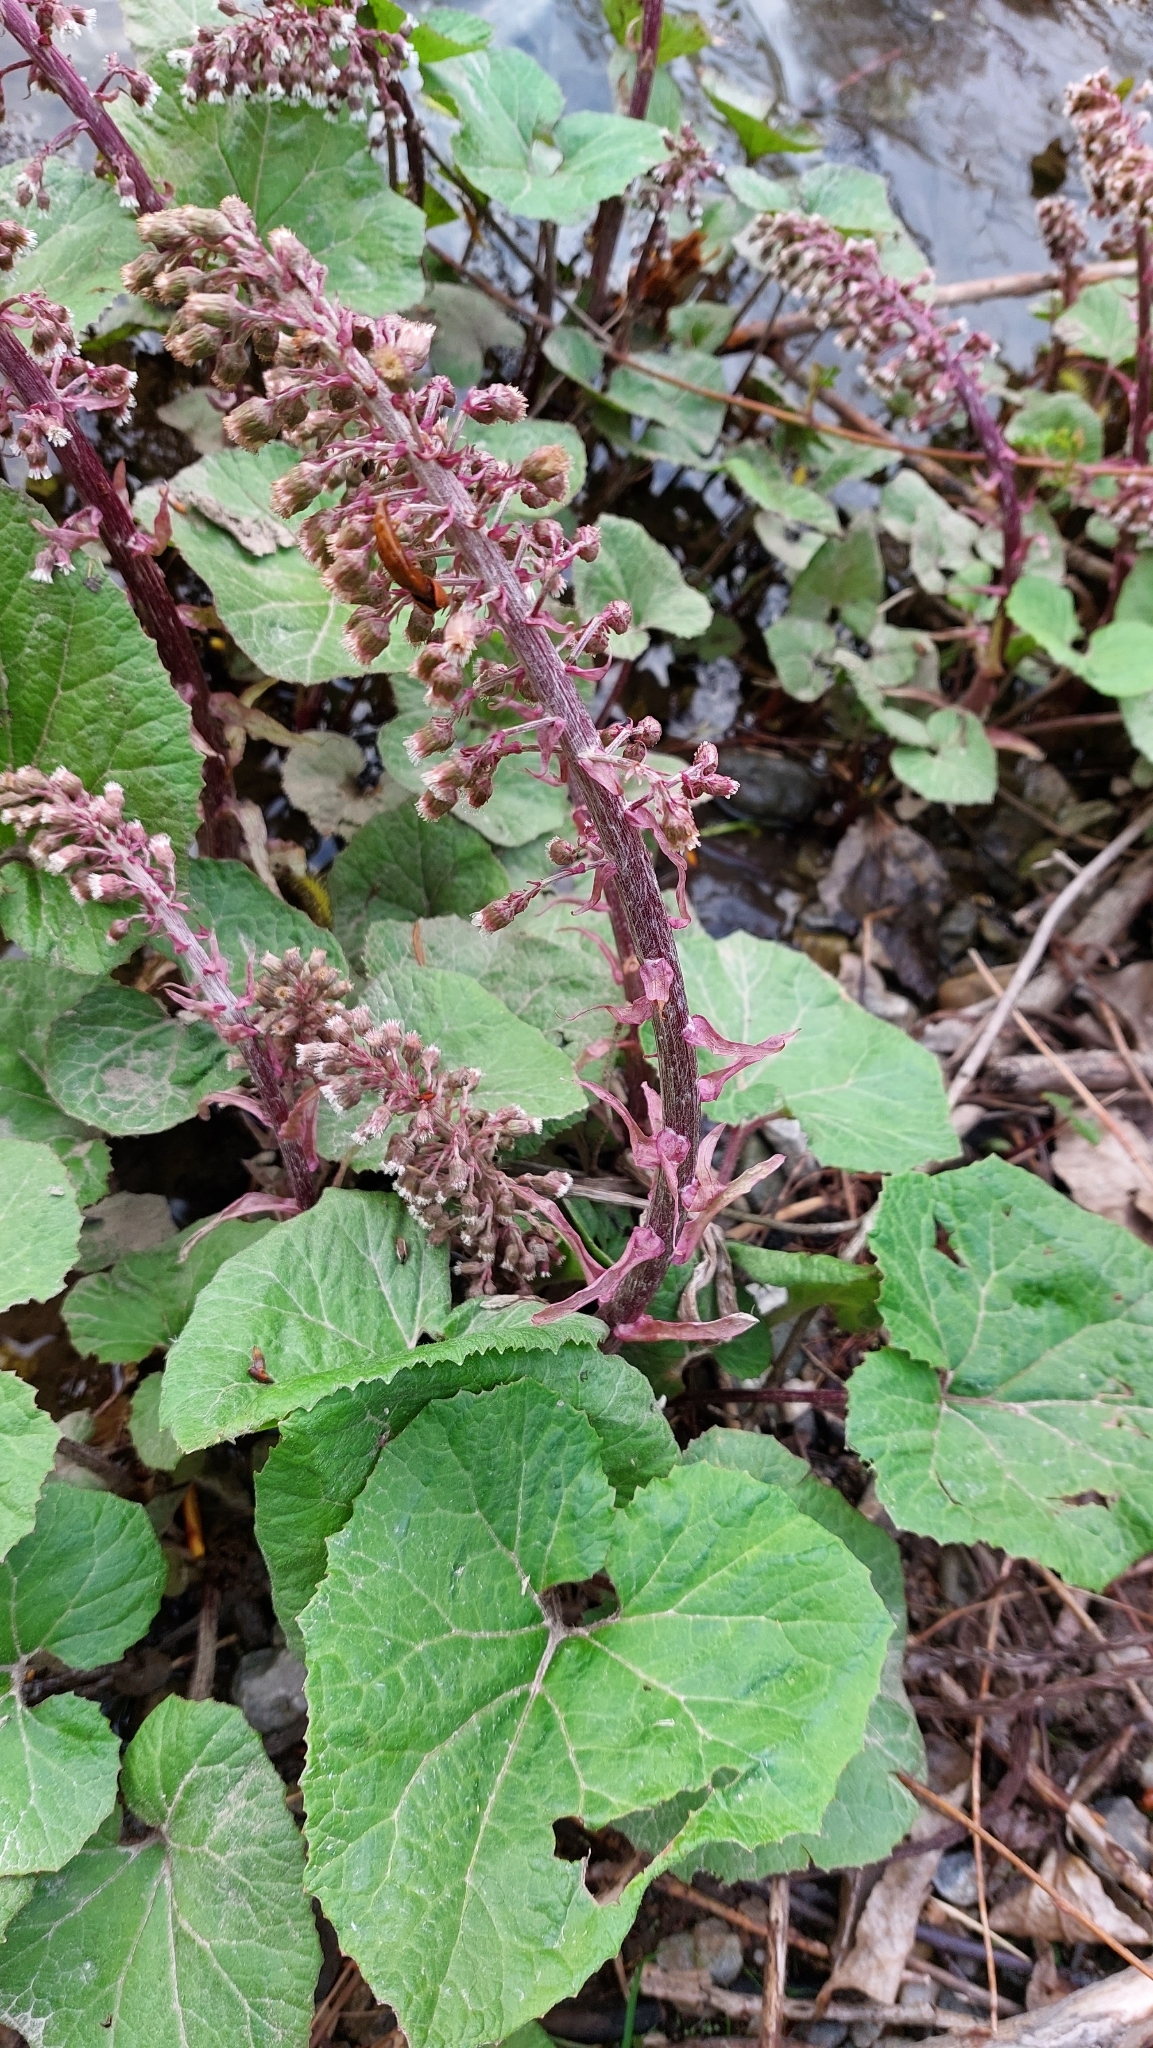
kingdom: Plantae
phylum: Tracheophyta
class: Magnoliopsida
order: Asterales
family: Asteraceae
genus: Petasites
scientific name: Petasites hybridus
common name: Butterbur
